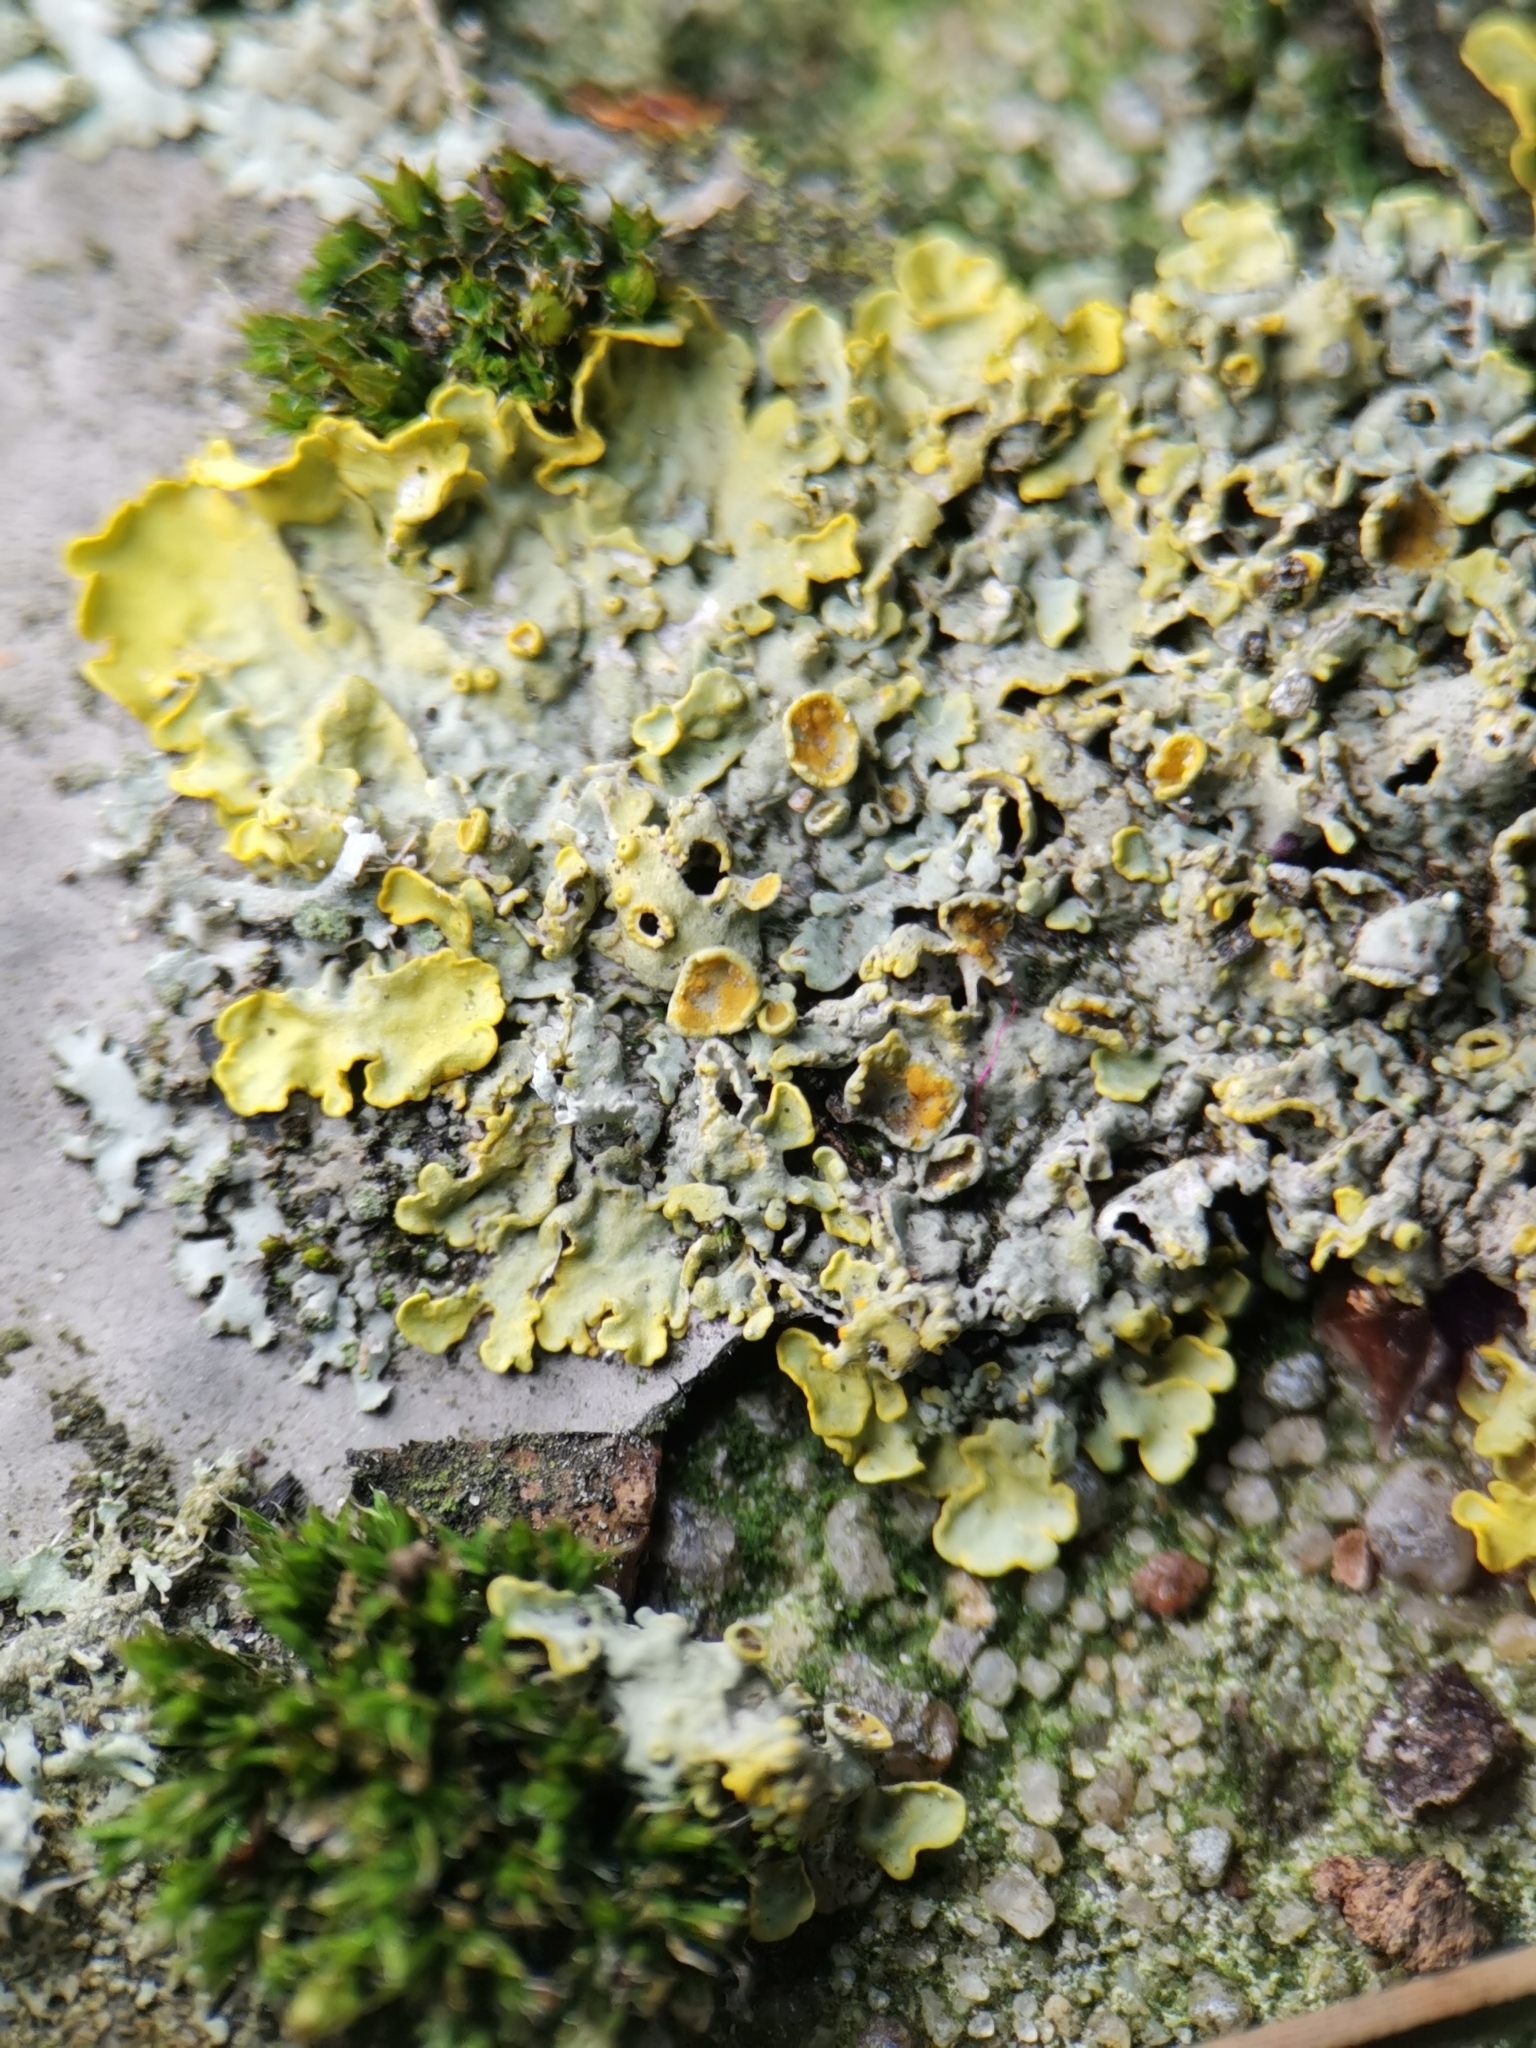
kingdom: Fungi
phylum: Ascomycota
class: Lecanoromycetes
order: Teloschistales
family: Teloschistaceae
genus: Xanthoria
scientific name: Xanthoria parietina
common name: Common orange lichen
